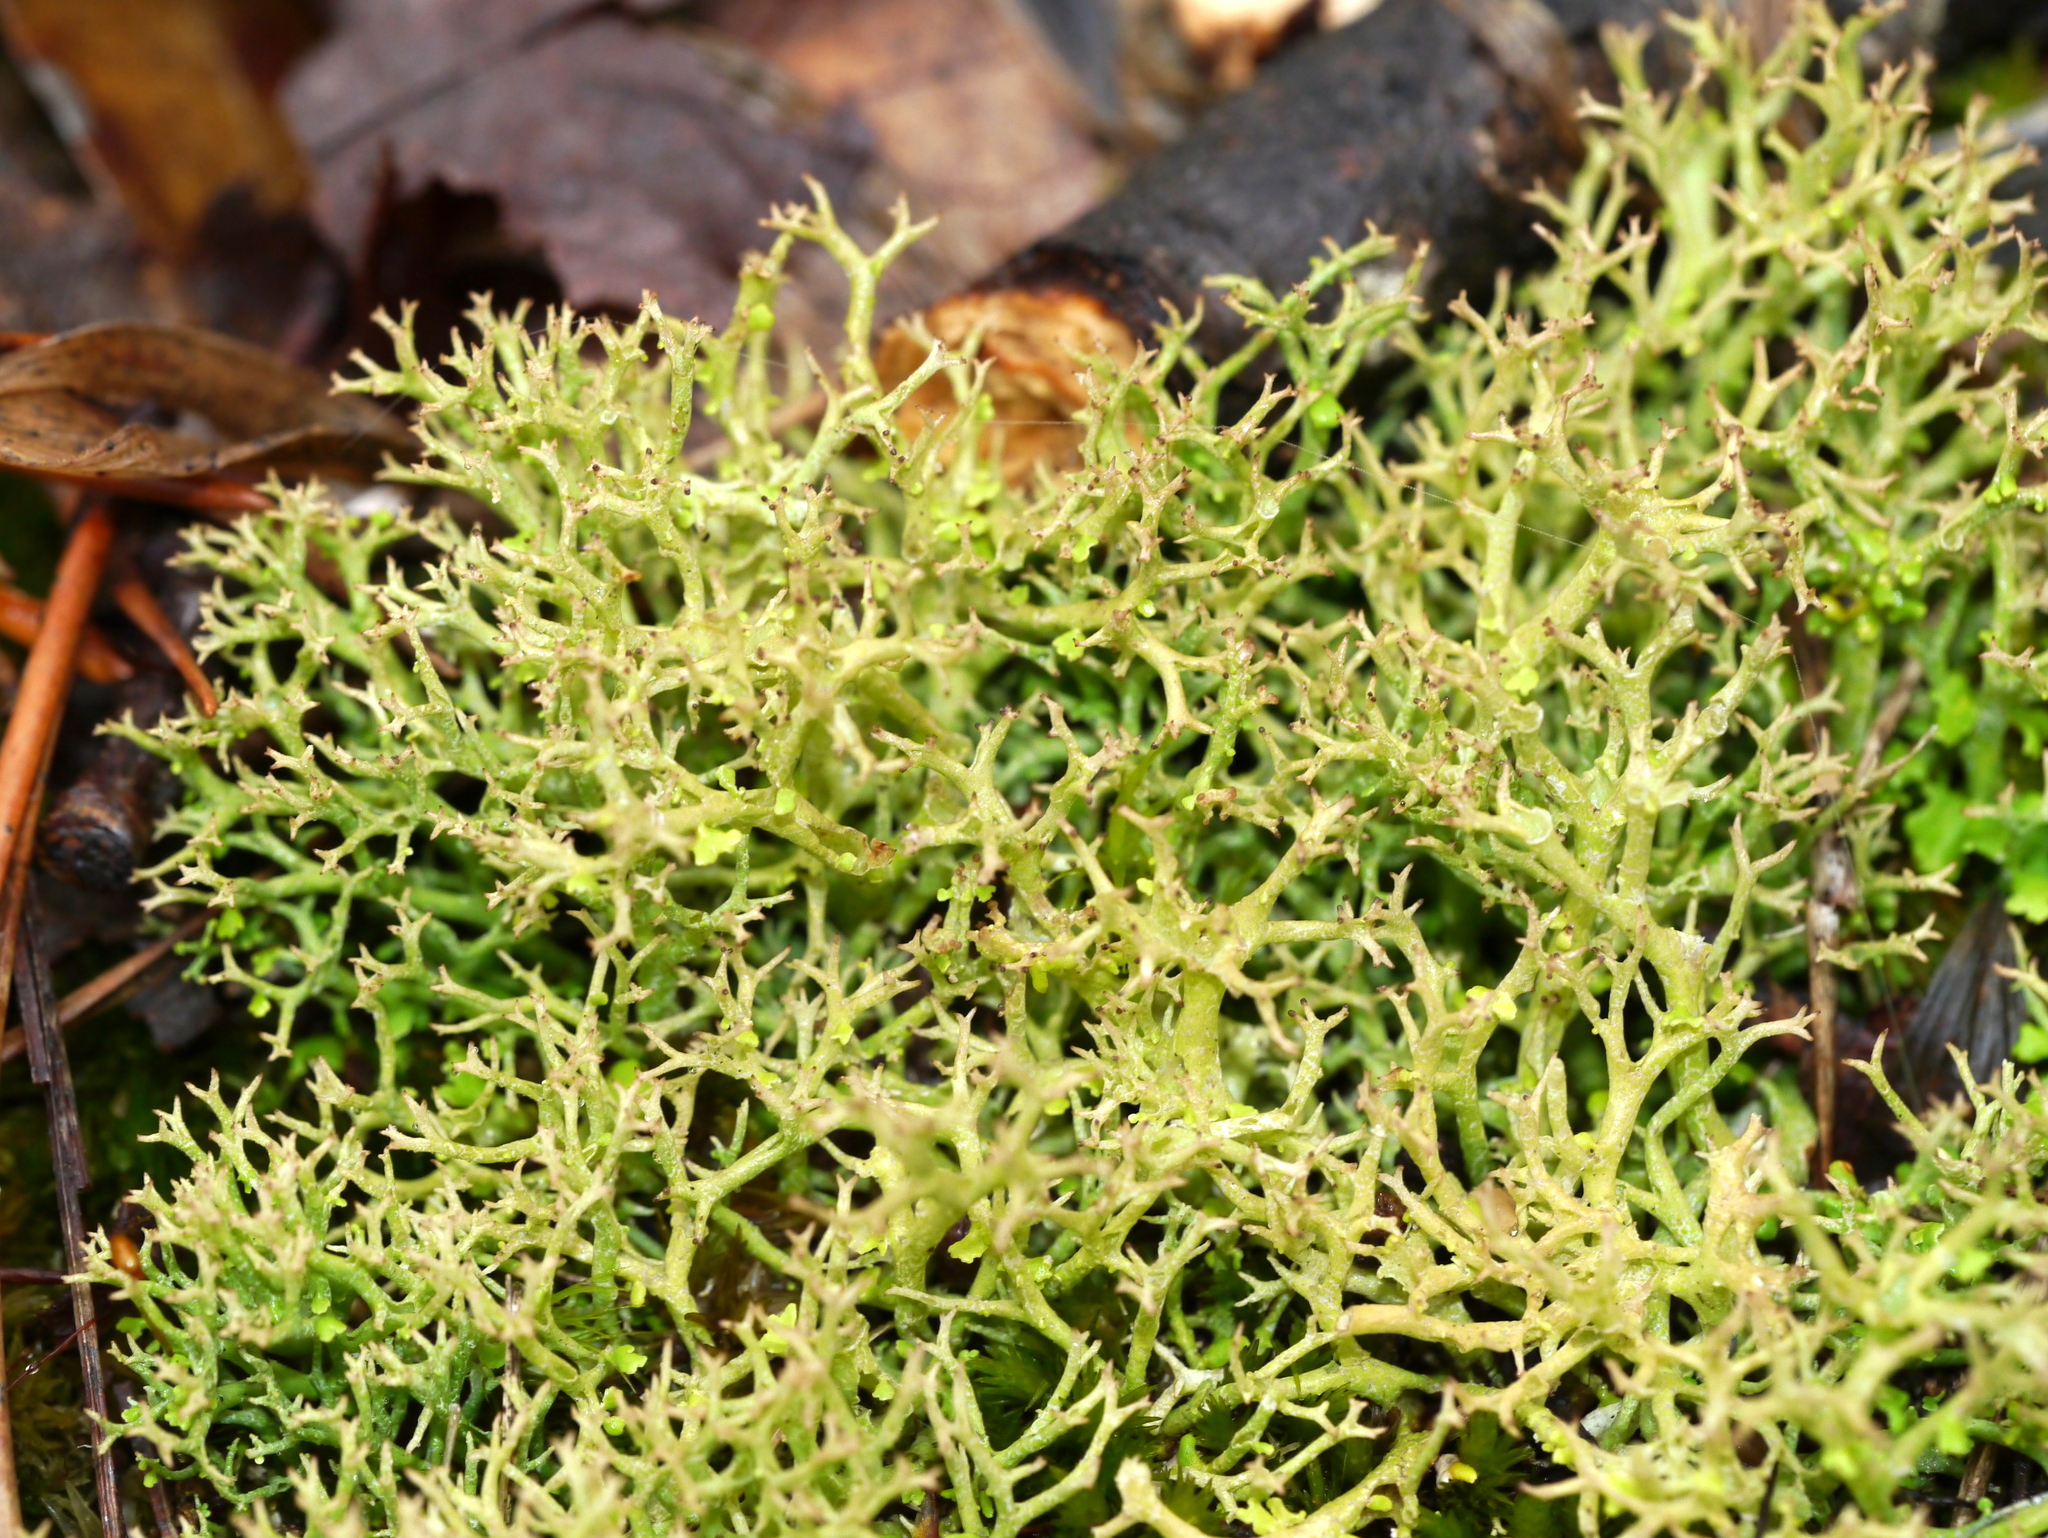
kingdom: Fungi
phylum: Ascomycota
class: Lecanoromycetes
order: Lecanorales
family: Cladoniaceae
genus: Cladonia
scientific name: Cladonia furcata
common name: Many-forked cladonia
